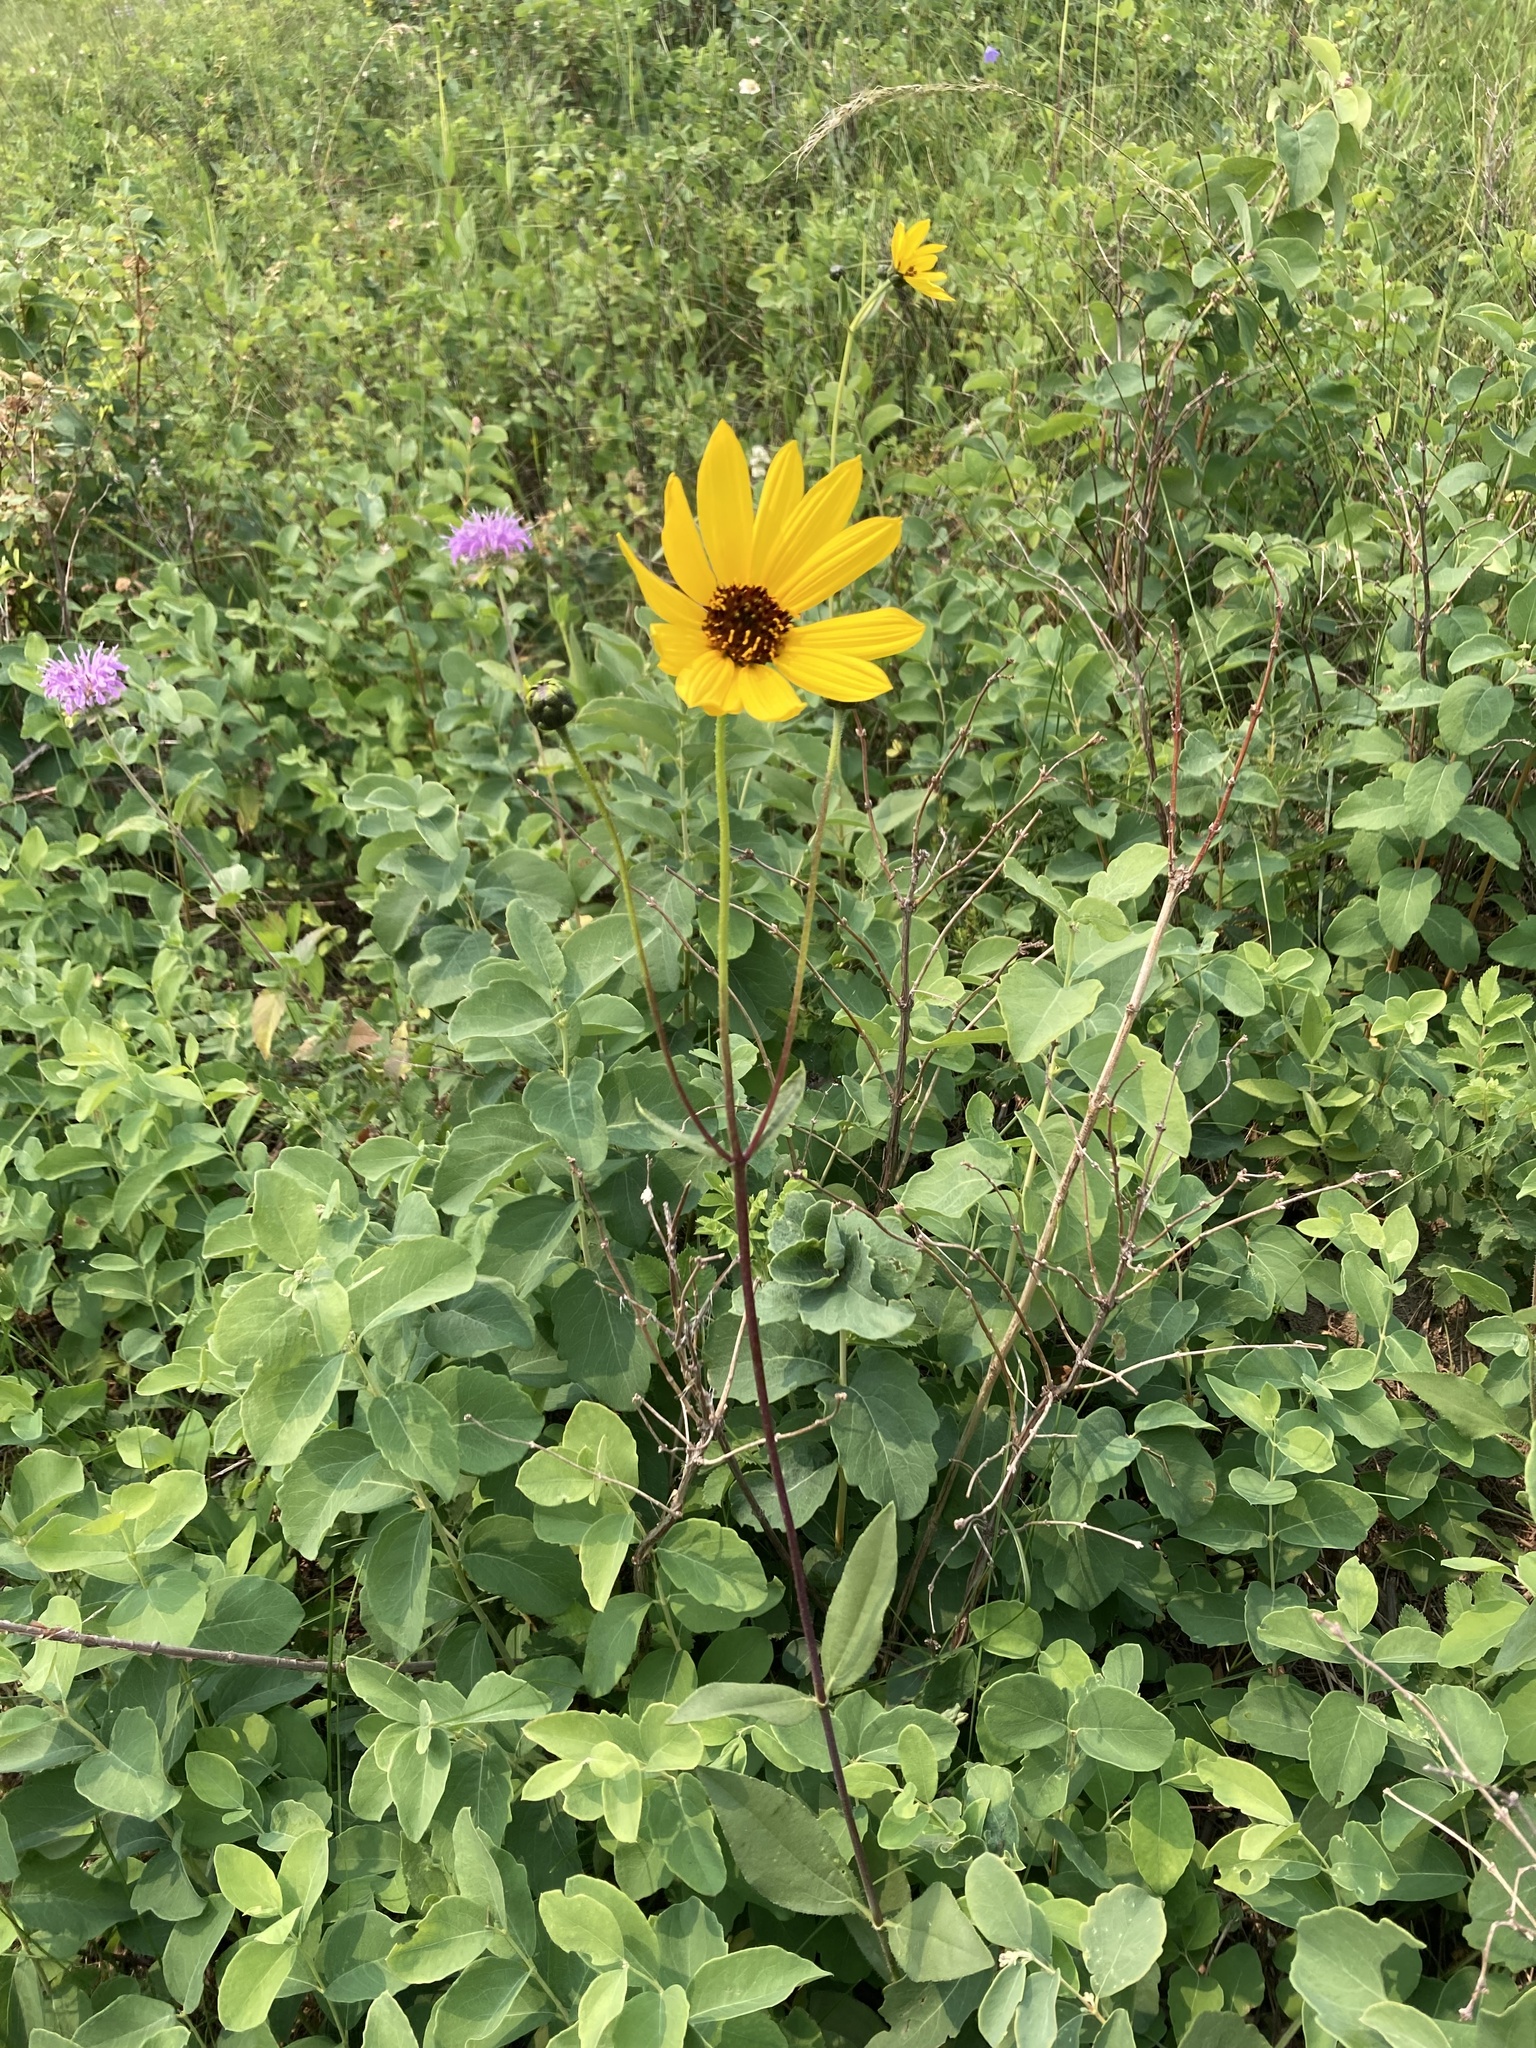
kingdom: Plantae
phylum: Tracheophyta
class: Magnoliopsida
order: Asterales
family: Asteraceae
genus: Helianthus
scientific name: Helianthus pauciflorus
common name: Stiff sunflower
